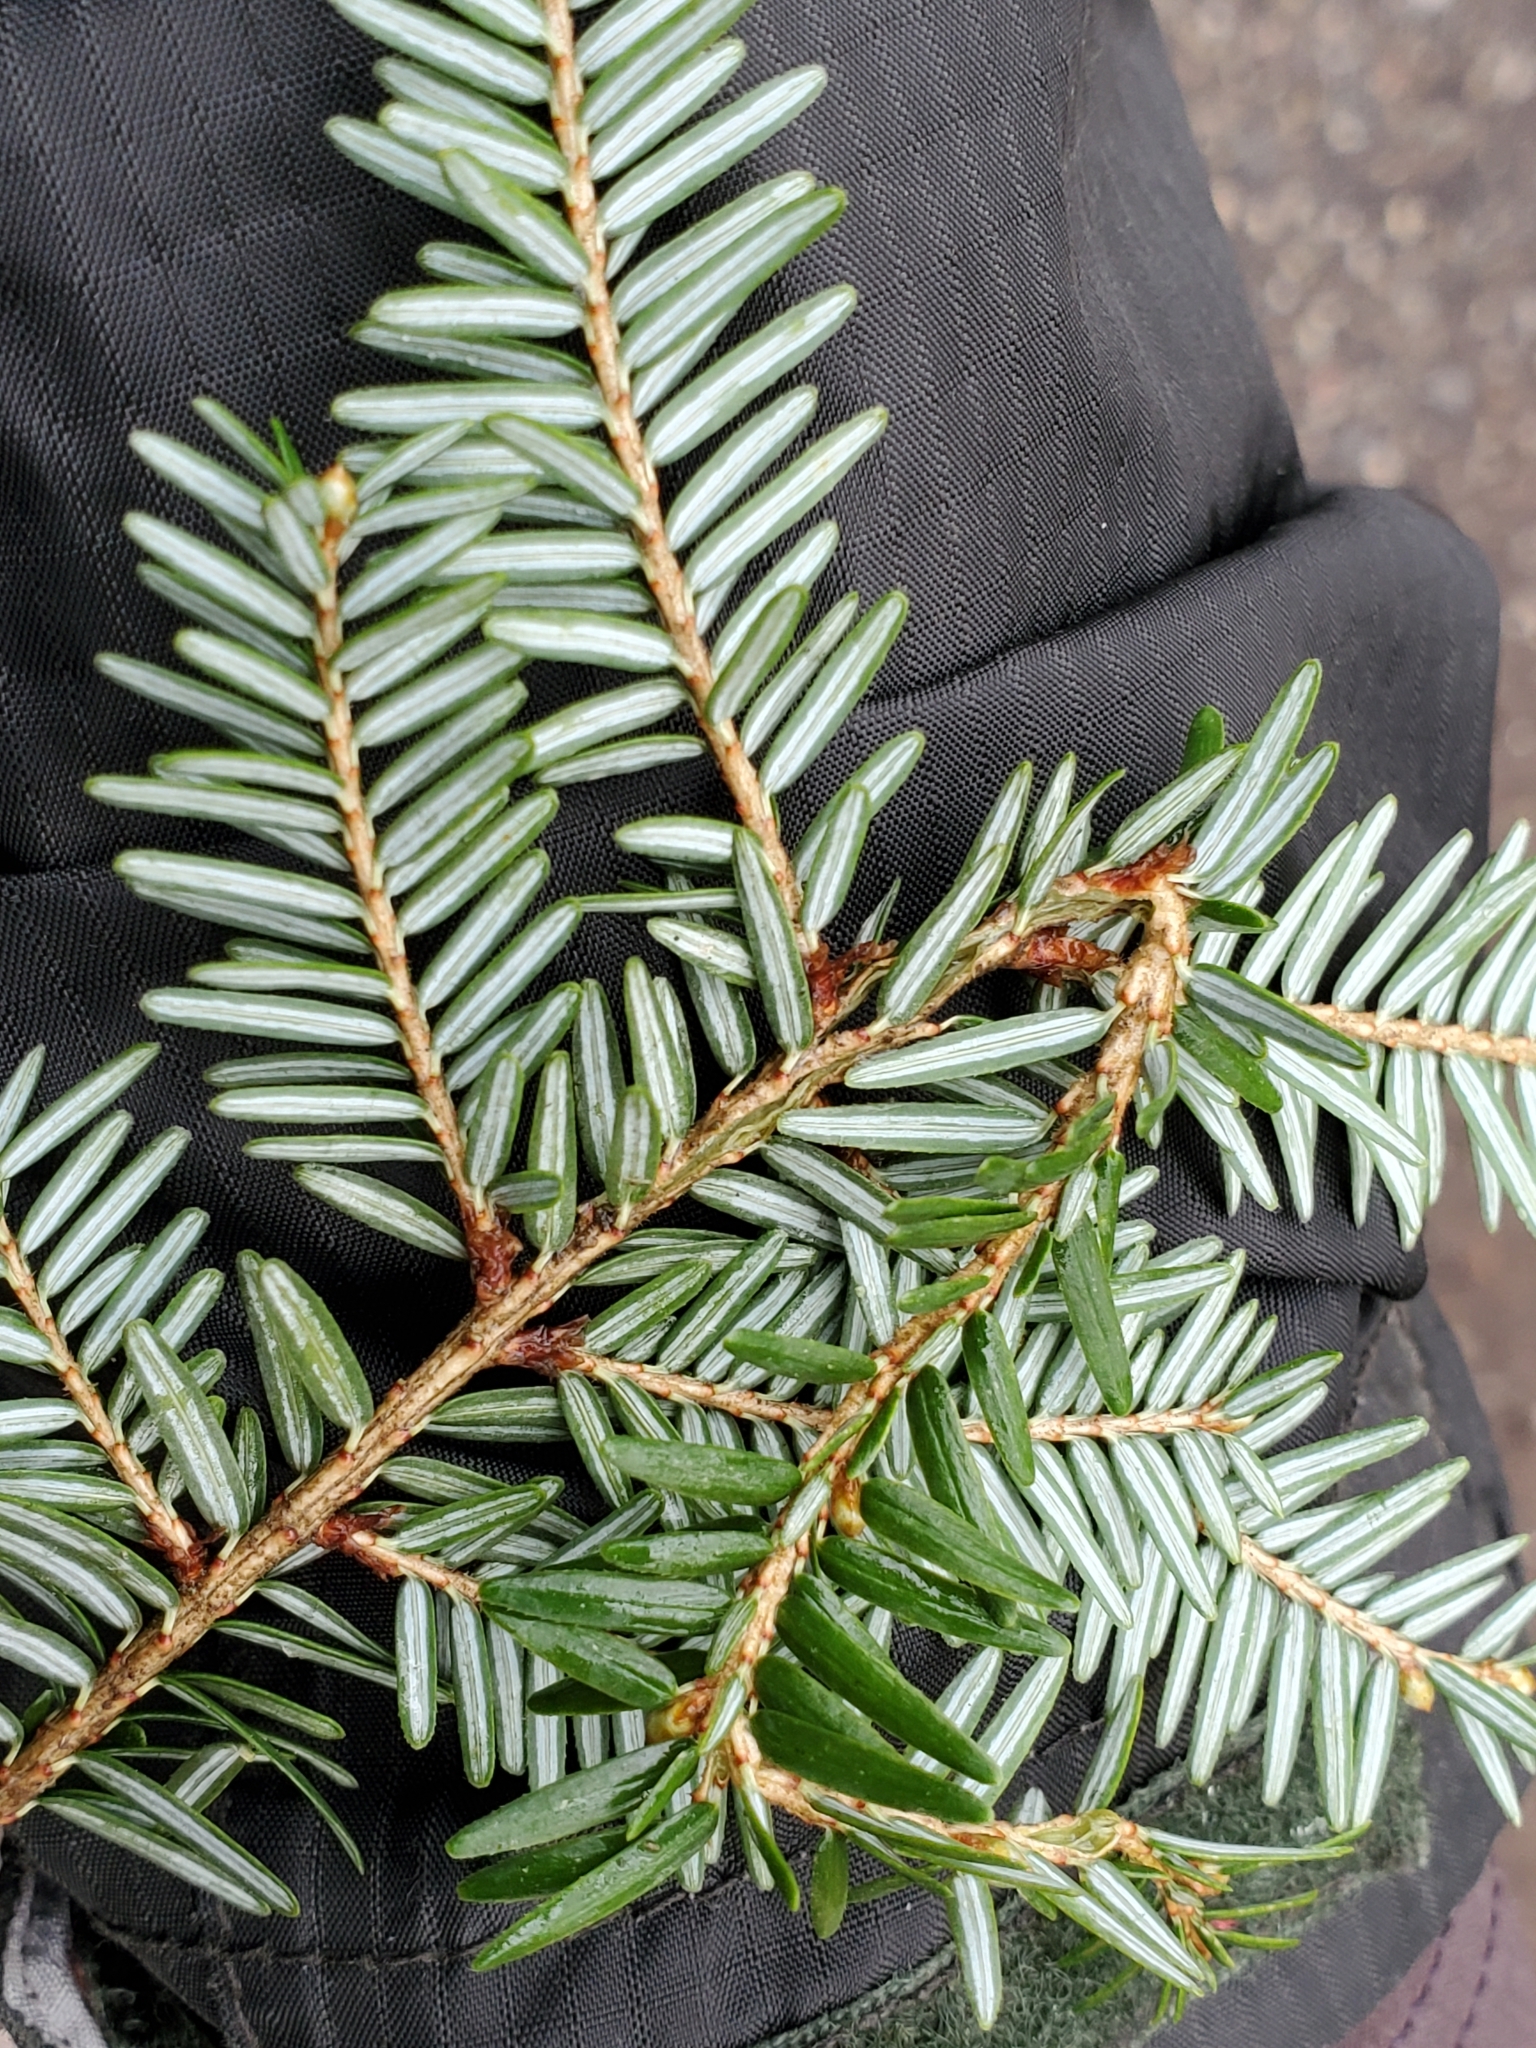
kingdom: Plantae
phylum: Tracheophyta
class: Pinopsida
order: Pinales
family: Pinaceae
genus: Tsuga
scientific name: Tsuga canadensis
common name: Eastern hemlock
